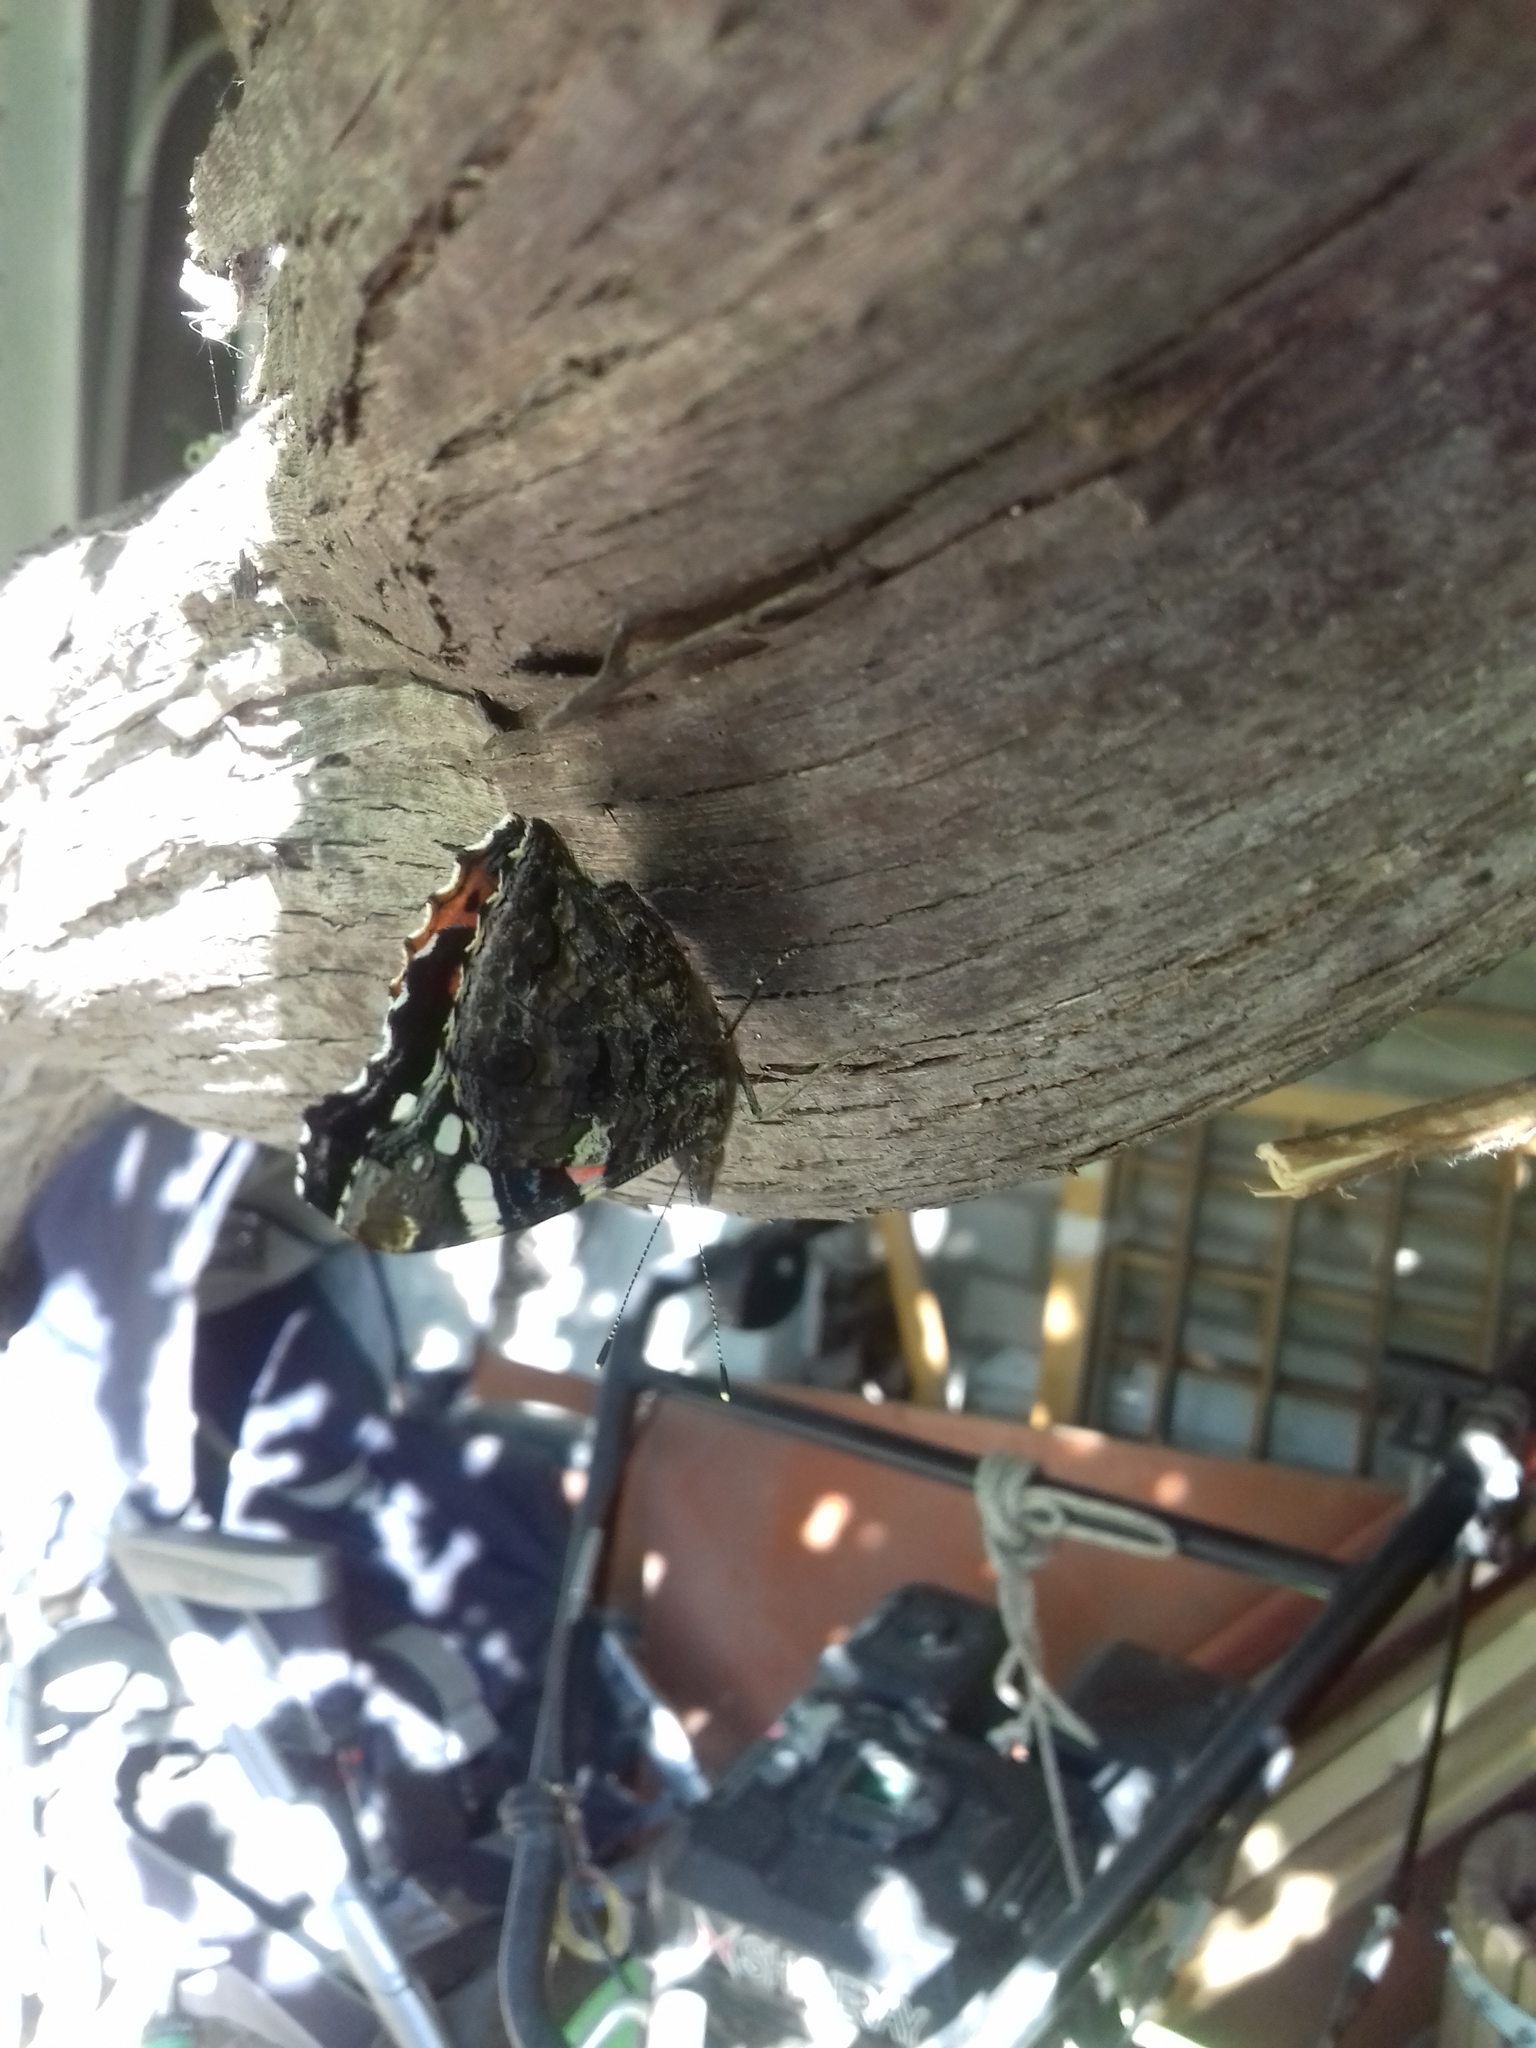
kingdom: Animalia
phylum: Arthropoda
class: Insecta
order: Lepidoptera
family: Nymphalidae
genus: Vanessa
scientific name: Vanessa atalanta
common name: Red admiral
